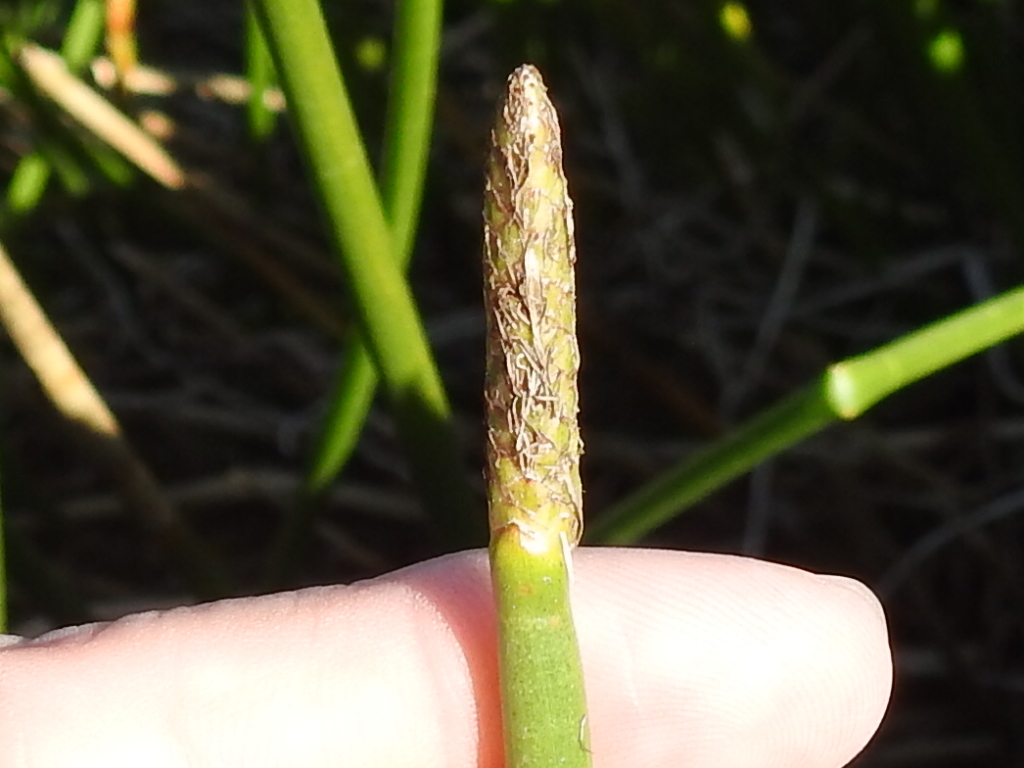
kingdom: Plantae
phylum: Tracheophyta
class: Liliopsida
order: Poales
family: Cyperaceae
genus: Eleocharis
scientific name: Eleocharis interstincta
